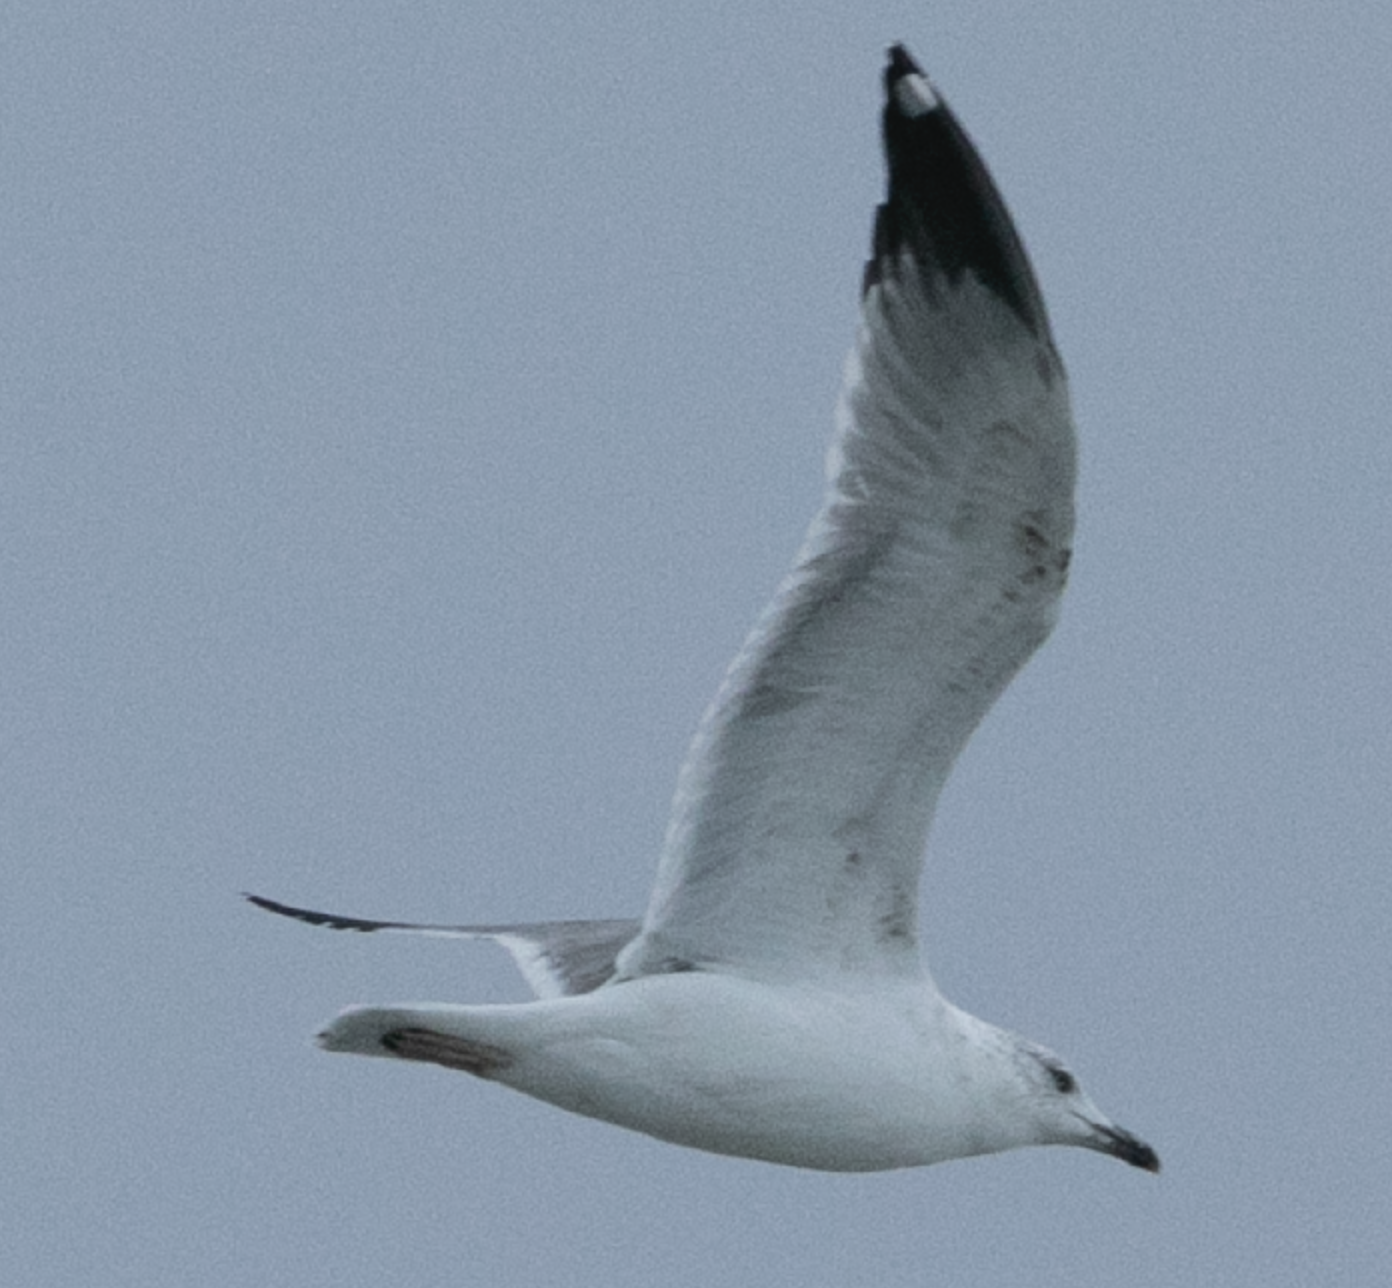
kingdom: Animalia
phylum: Chordata
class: Aves
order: Charadriiformes
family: Laridae
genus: Larus
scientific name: Larus michahellis
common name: Yellow-legged gull
